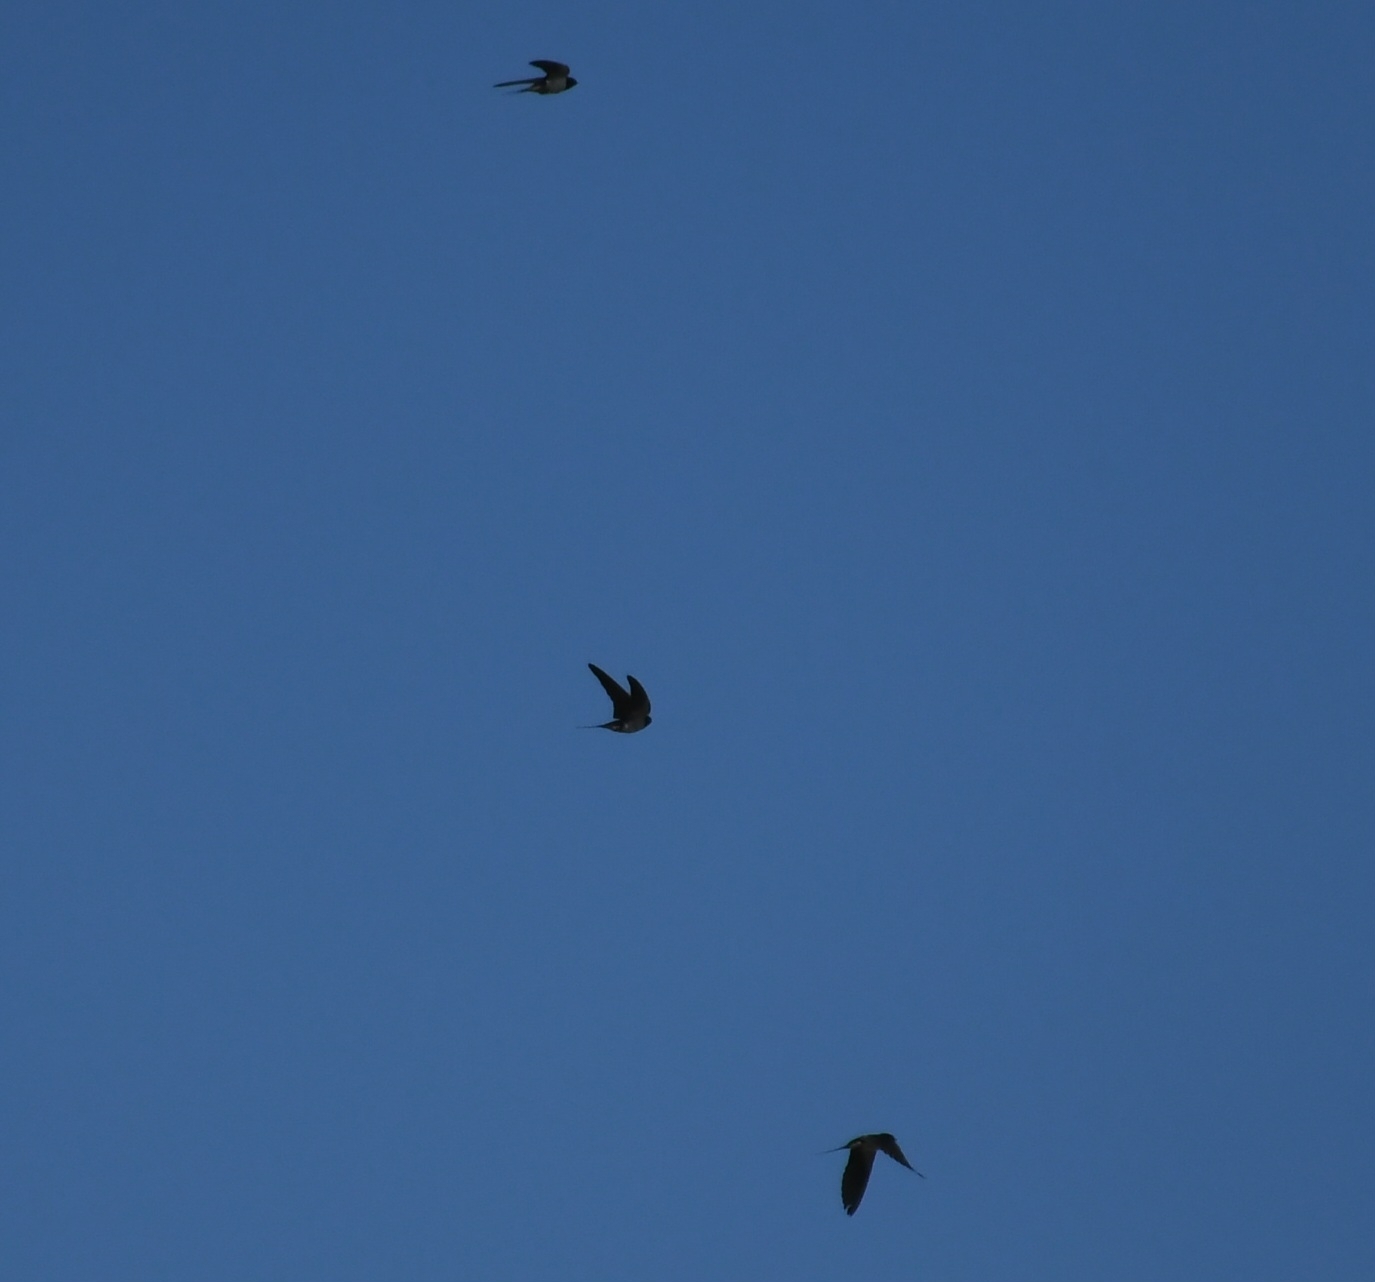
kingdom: Animalia
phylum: Chordata
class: Aves
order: Passeriformes
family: Hirundinidae
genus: Hirundo
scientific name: Hirundo rustica
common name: Barn swallow
